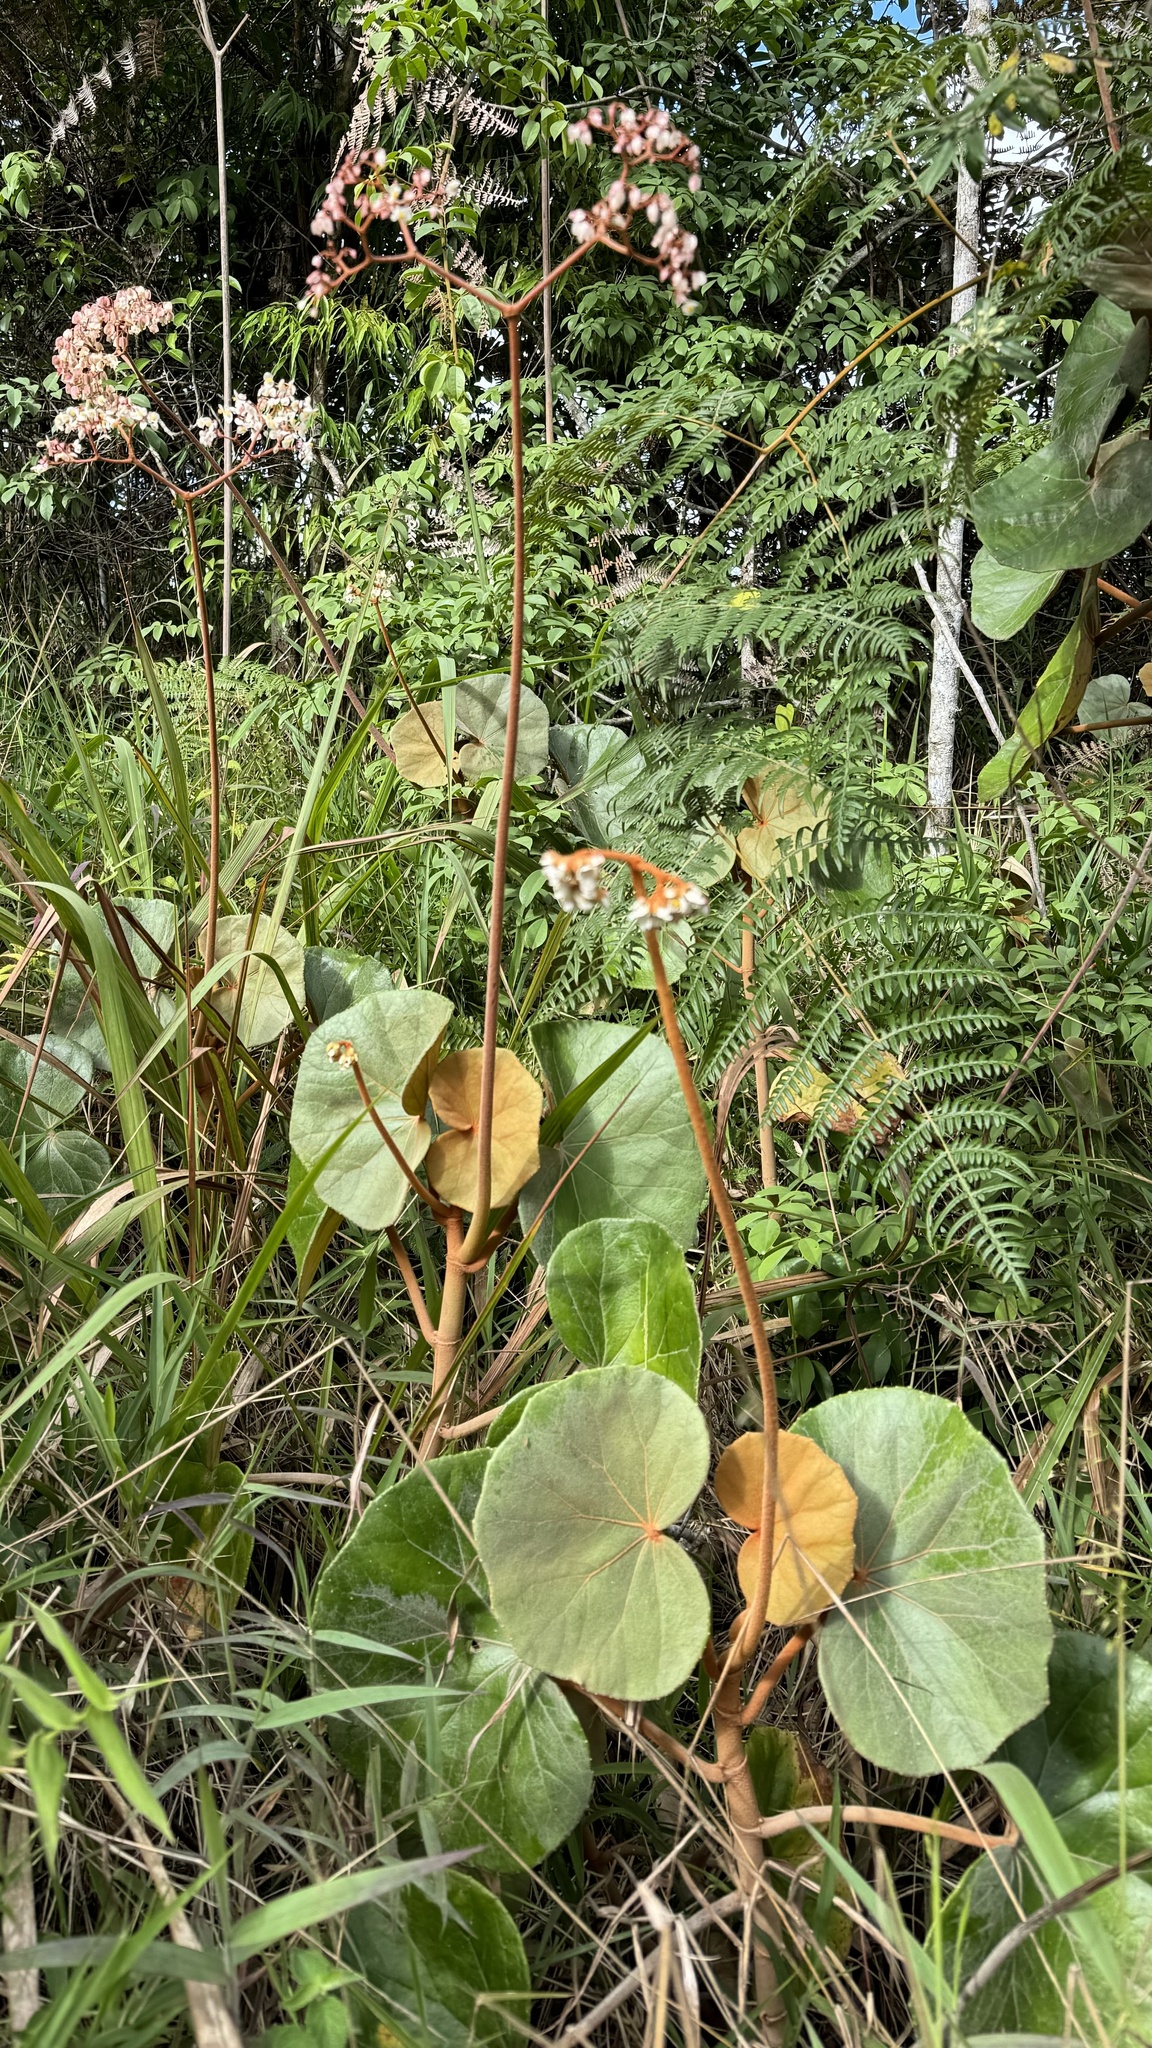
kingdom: Plantae
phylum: Tracheophyta
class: Magnoliopsida
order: Cucurbitales
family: Begoniaceae
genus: Begonia
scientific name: Begonia grisea
